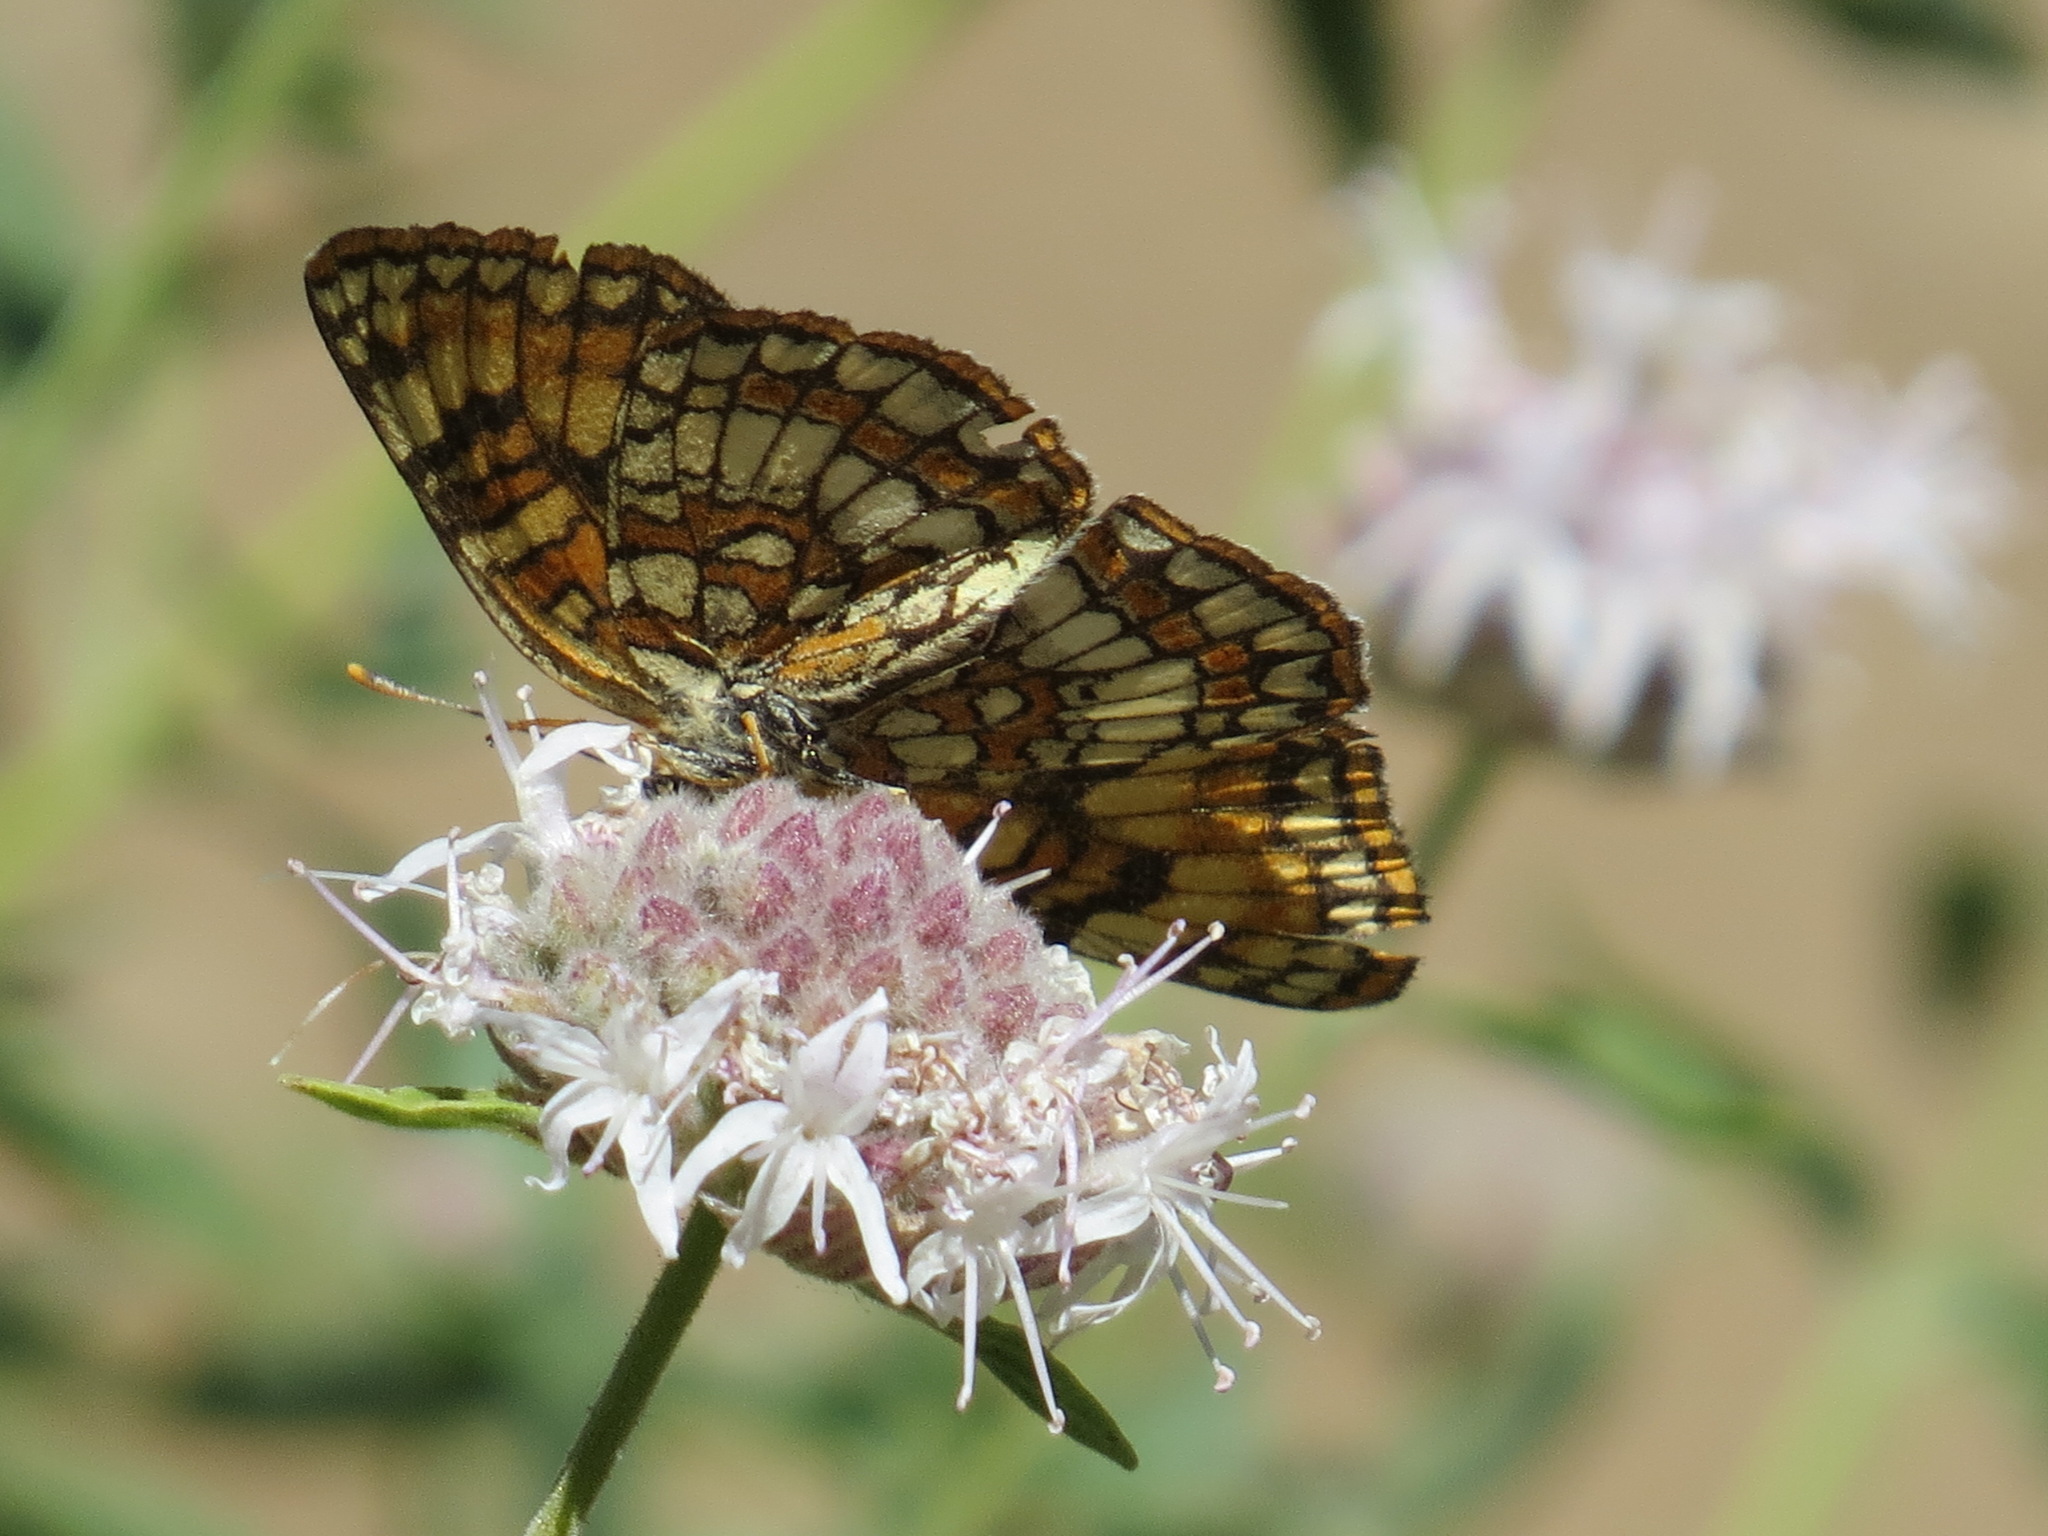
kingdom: Animalia
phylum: Arthropoda
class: Insecta
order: Lepidoptera
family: Nymphalidae
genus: Chlosyne
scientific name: Chlosyne hoffmanni
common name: Hoffmann's checkerspot
